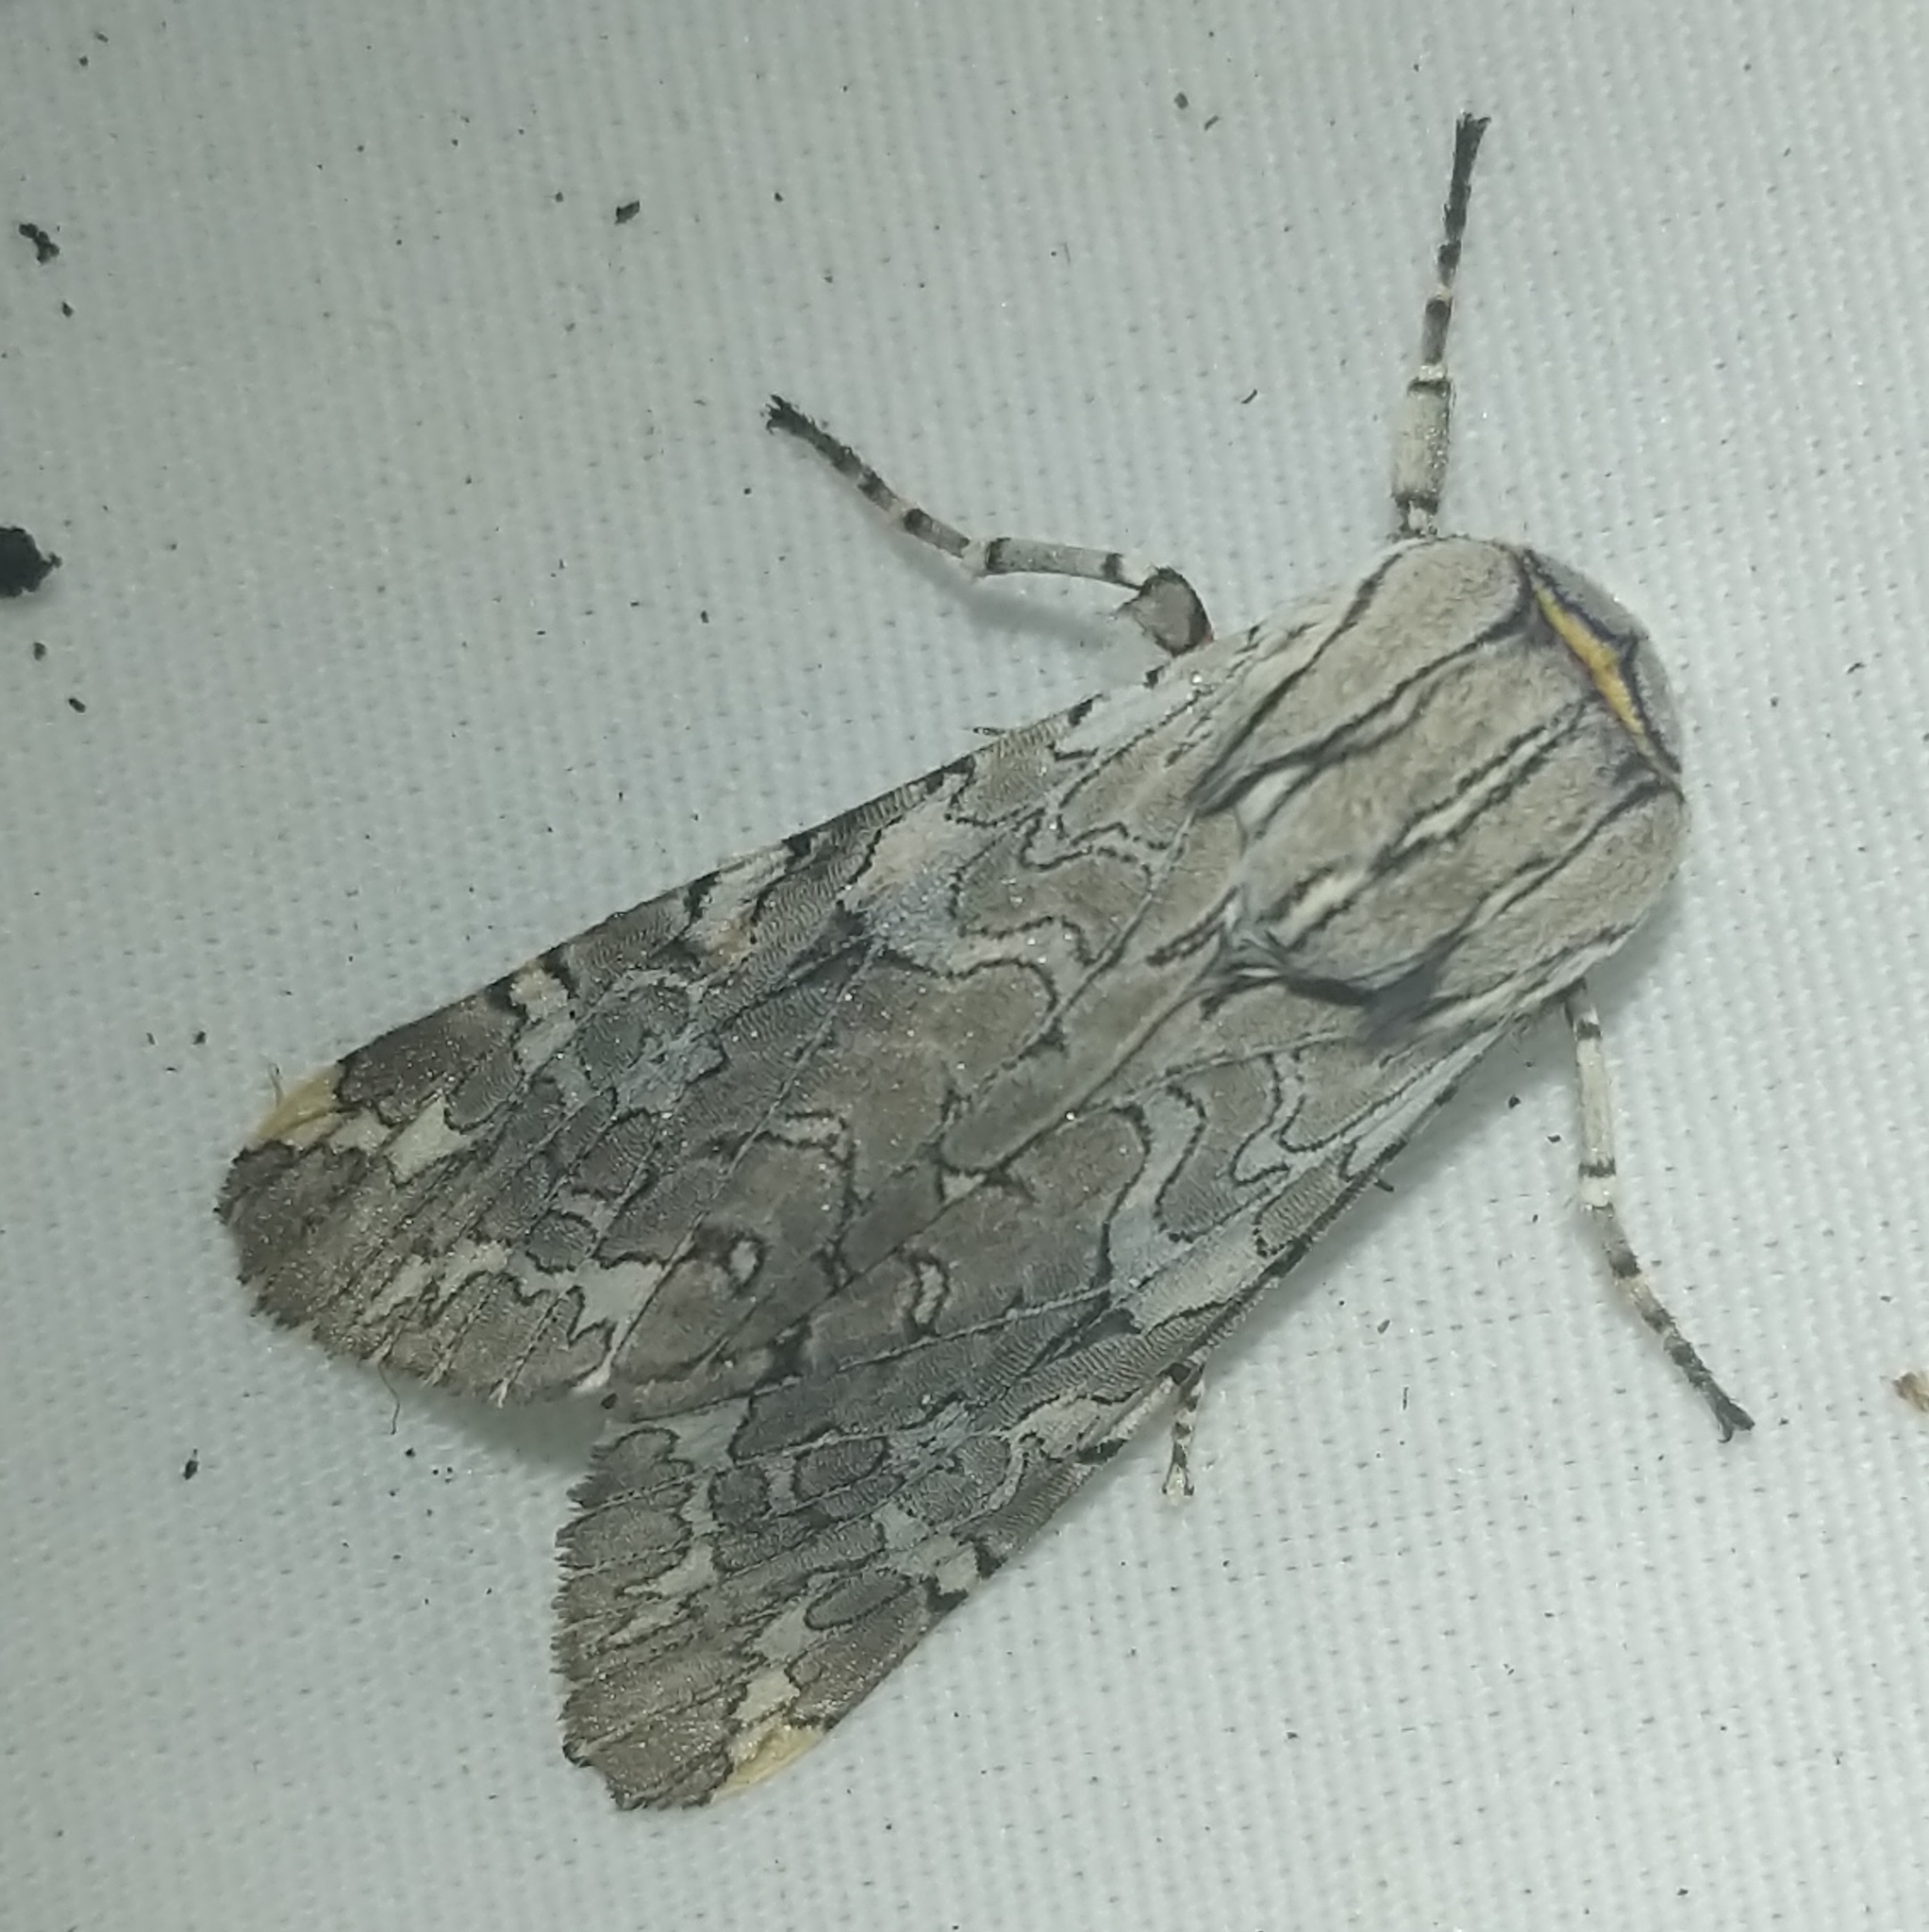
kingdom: Animalia
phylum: Arthropoda
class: Insecta
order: Lepidoptera
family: Erebidae
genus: Arachnis
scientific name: Arachnis picta
